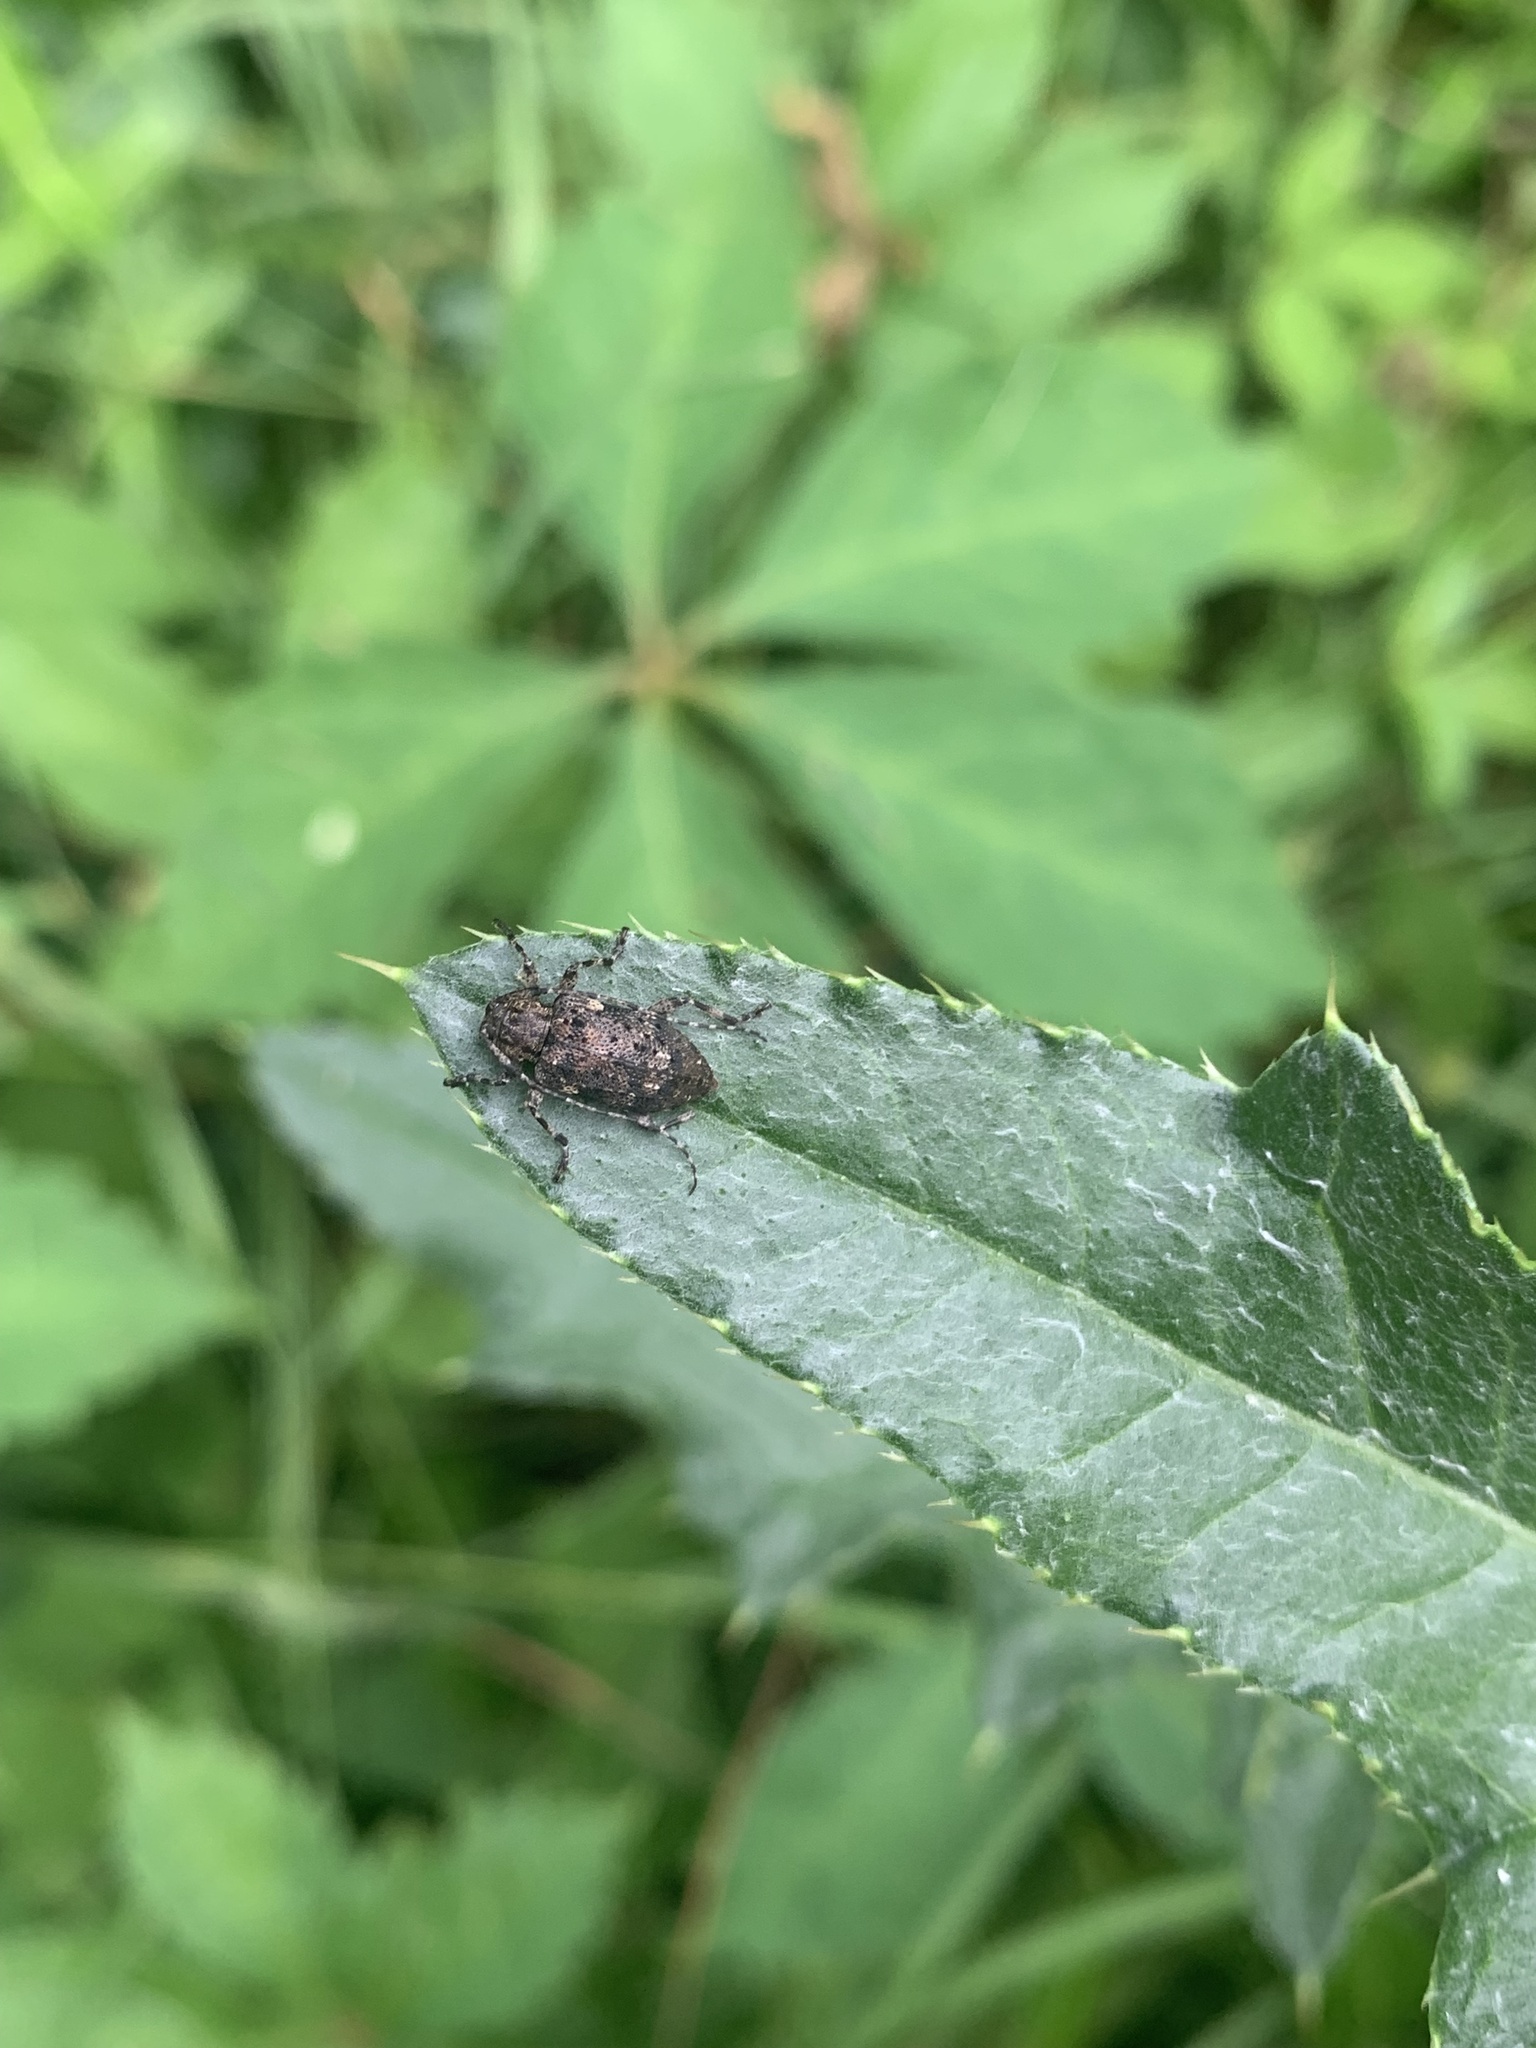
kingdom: Animalia
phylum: Arthropoda
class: Insecta
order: Coleoptera
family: Cerambycidae
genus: Astylopsis
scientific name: Astylopsis sexguttata
